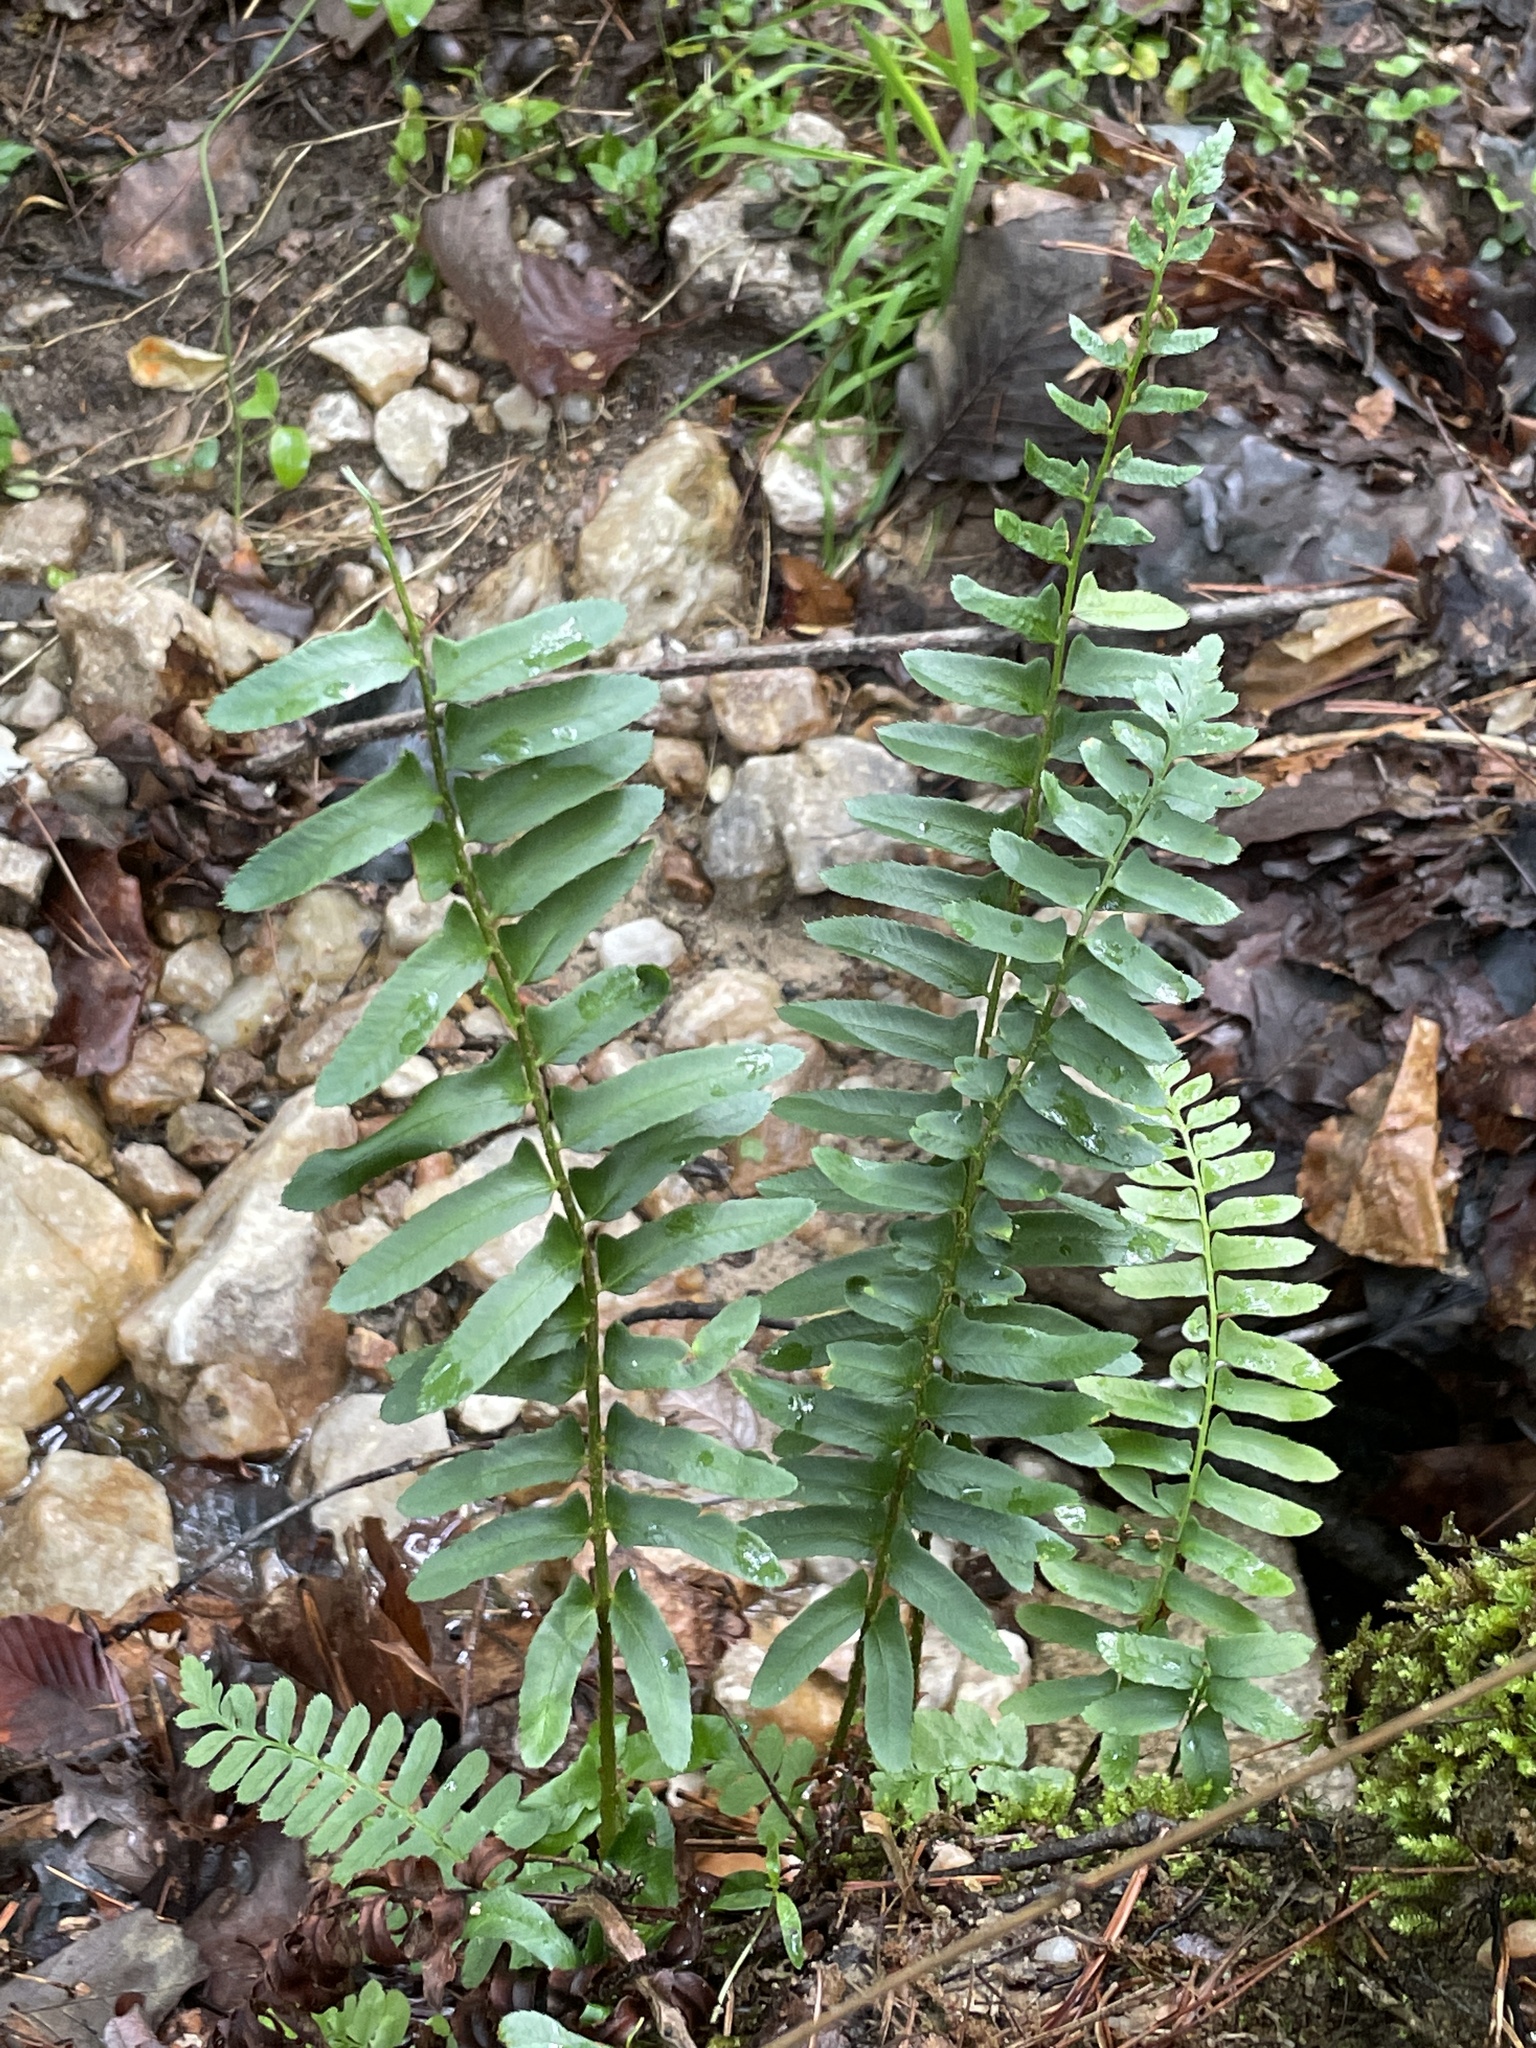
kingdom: Plantae
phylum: Tracheophyta
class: Polypodiopsida
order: Polypodiales
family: Dryopteridaceae
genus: Polystichum
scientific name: Polystichum acrostichoides
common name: Christmas fern
